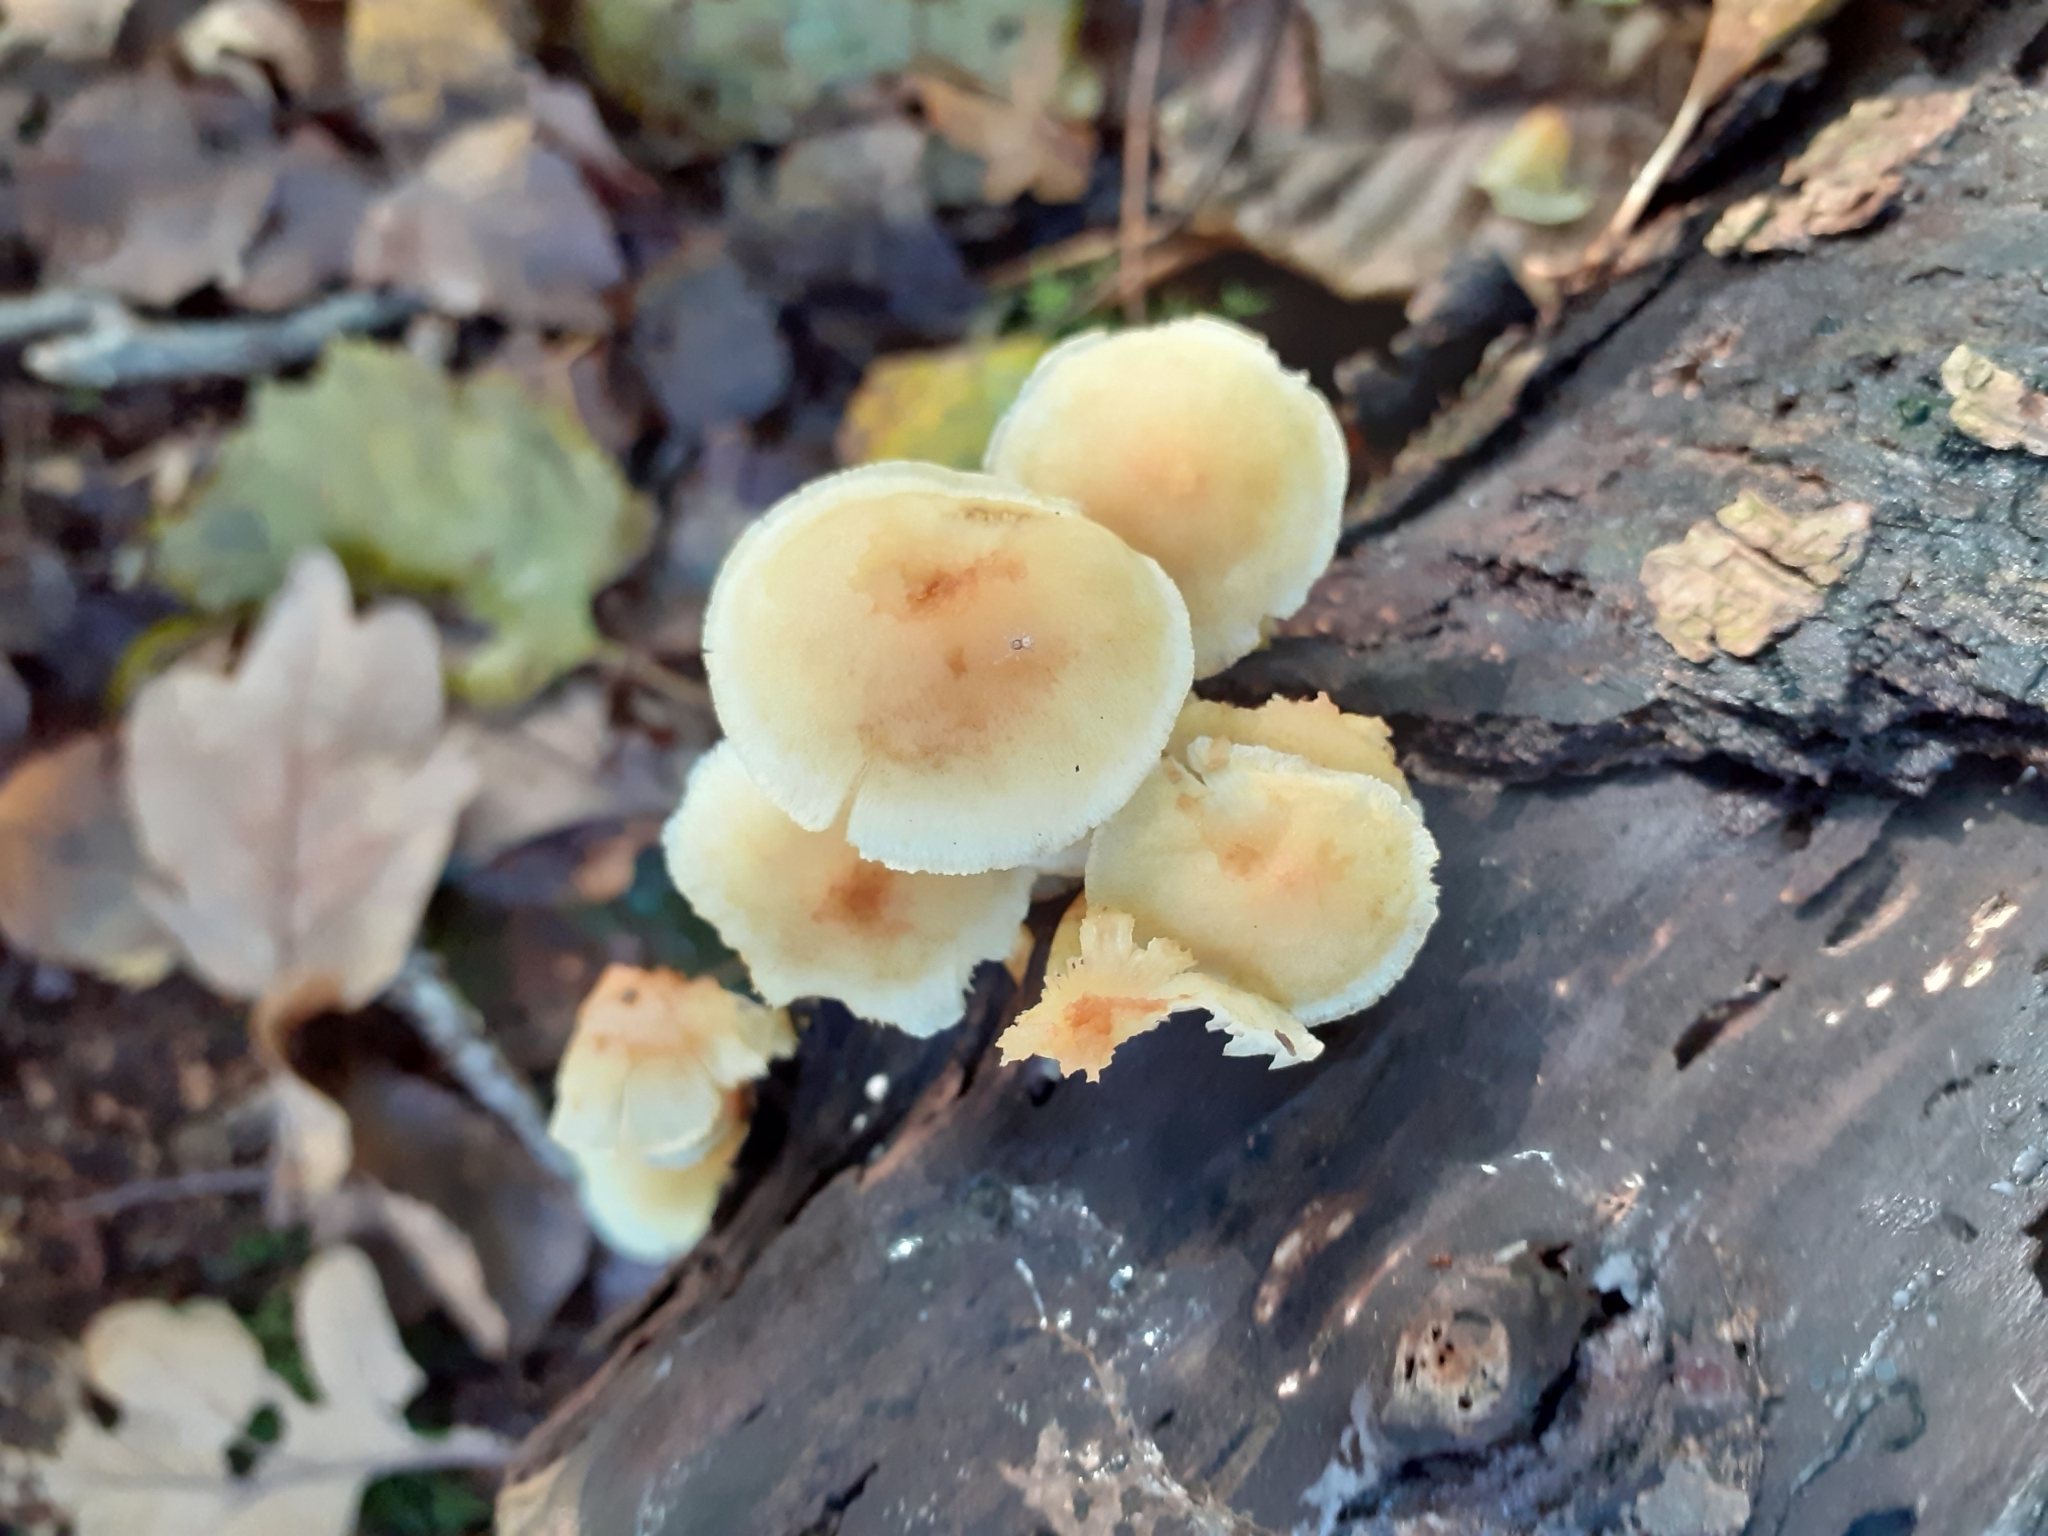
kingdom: Fungi
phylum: Basidiomycota
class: Agaricomycetes
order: Agaricales
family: Strophariaceae
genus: Hypholoma
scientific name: Hypholoma fasciculare
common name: Sulphur tuft
